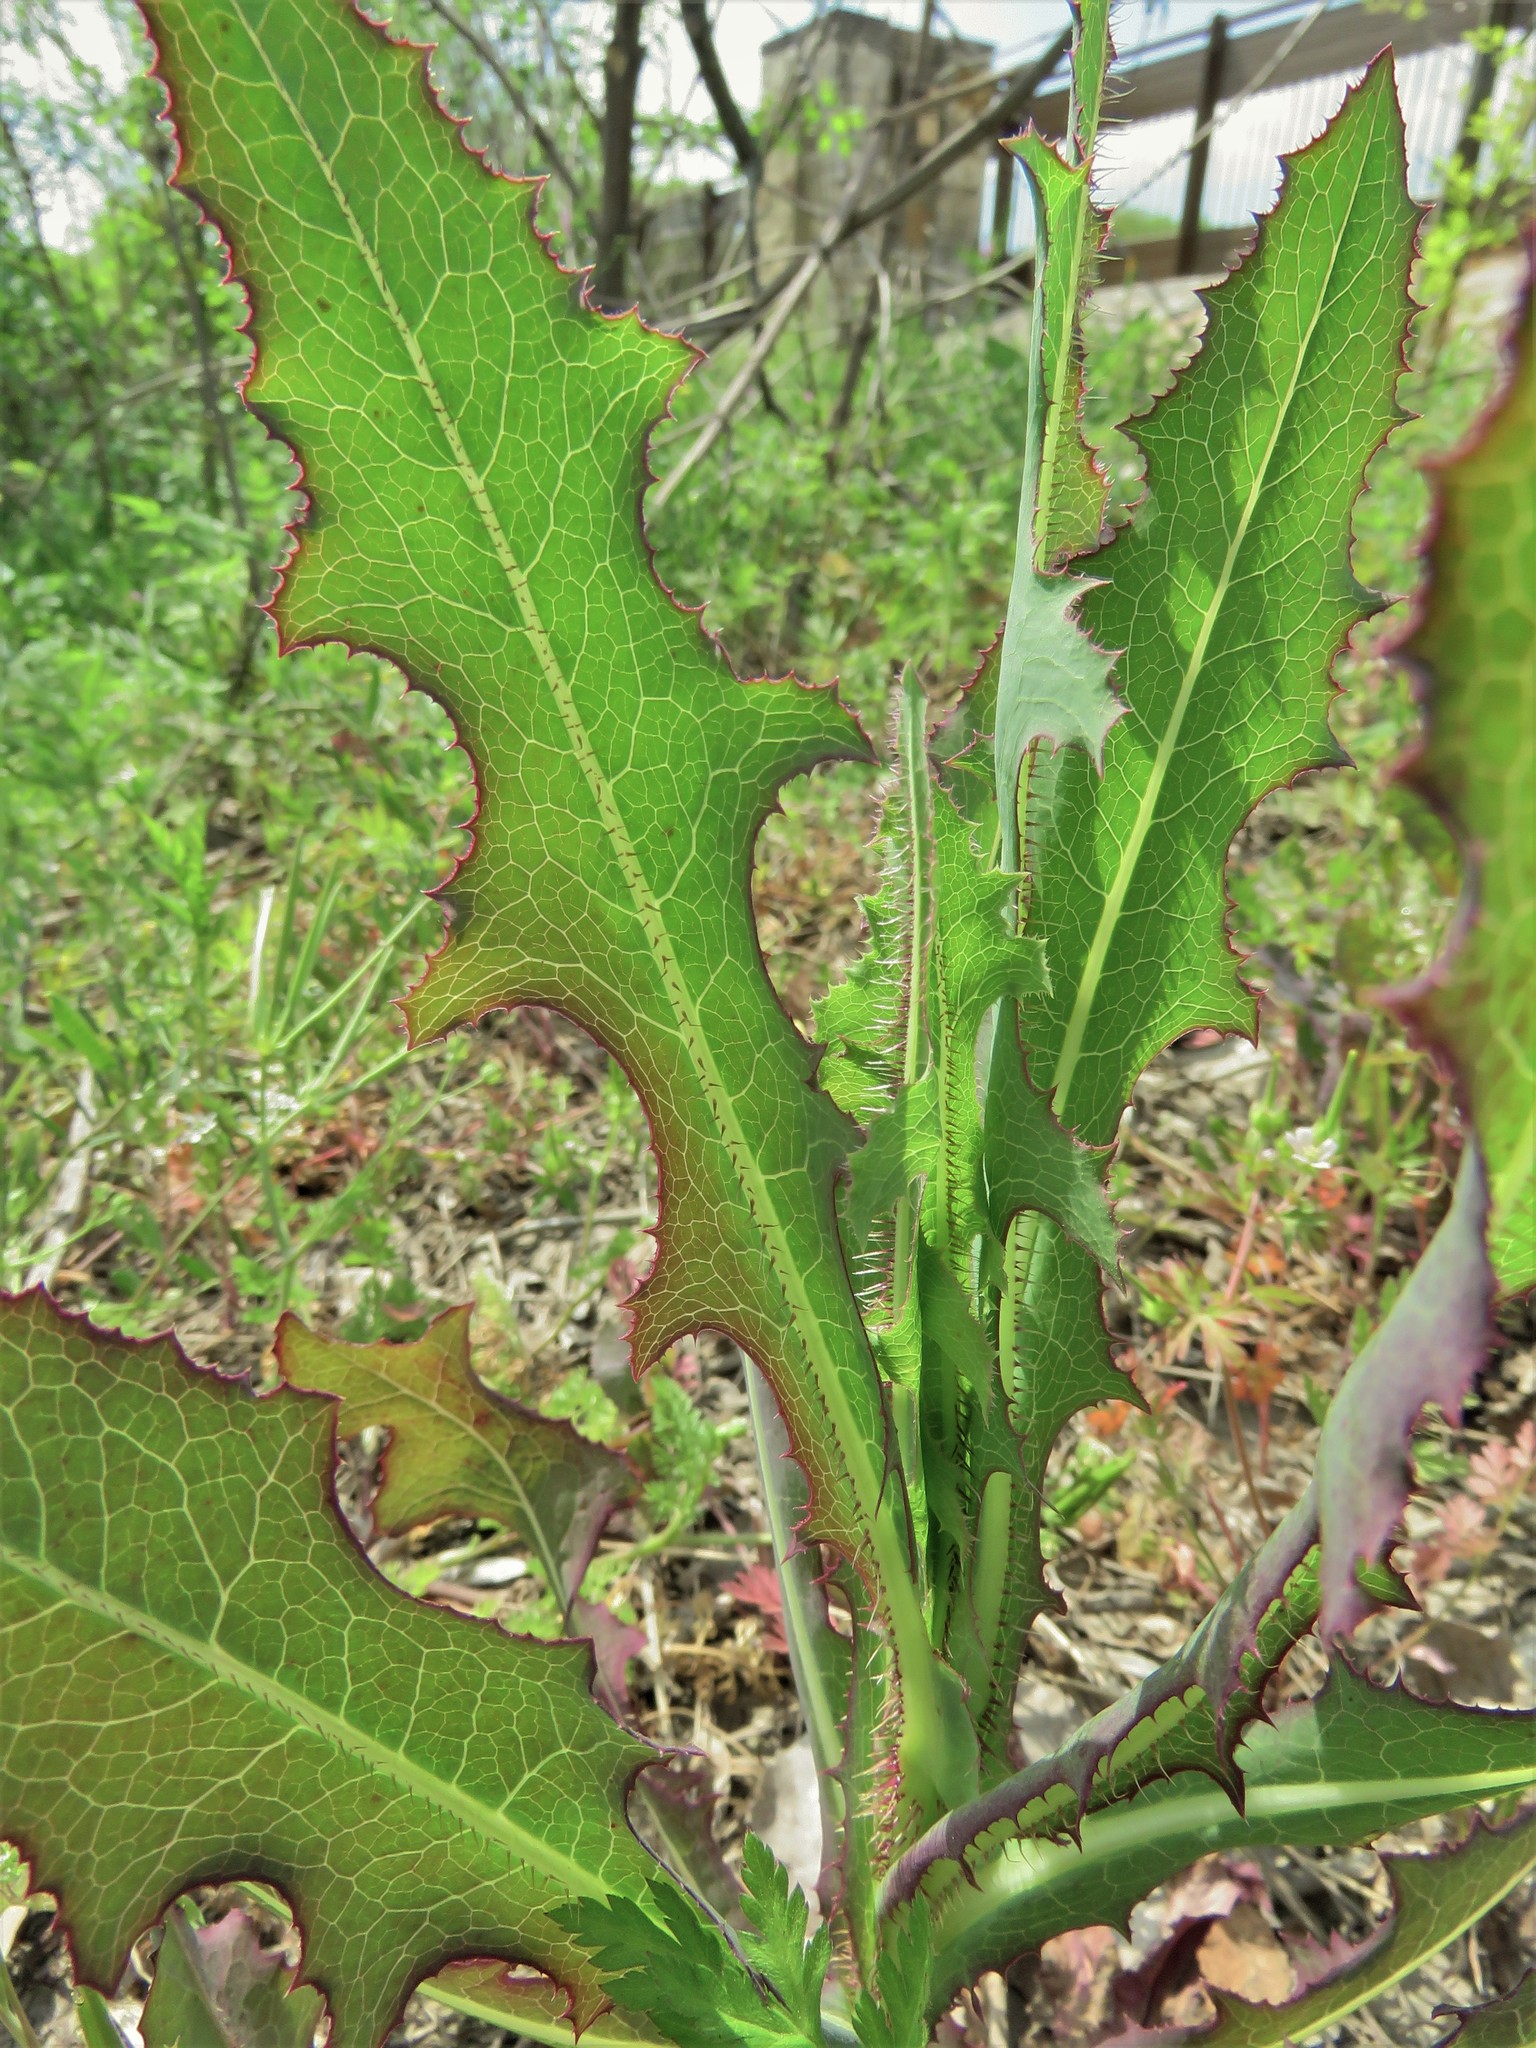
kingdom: Plantae
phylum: Tracheophyta
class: Magnoliopsida
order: Asterales
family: Asteraceae
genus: Lactuca
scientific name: Lactuca serriola
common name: Prickly lettuce
